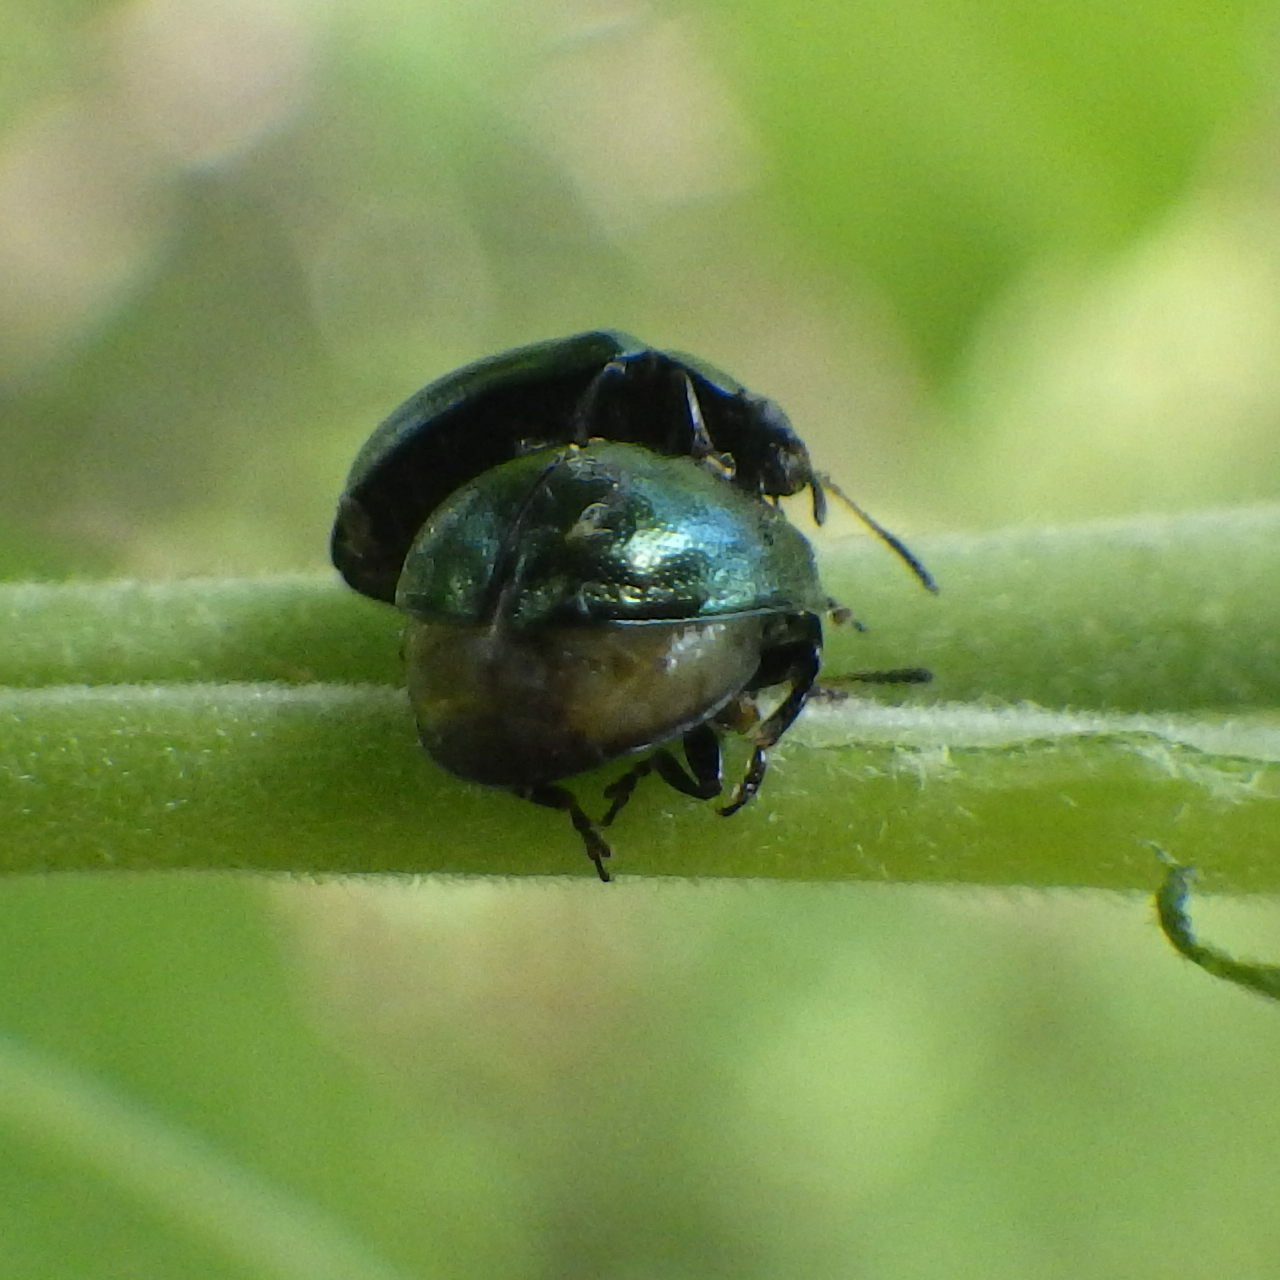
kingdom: Animalia
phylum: Arthropoda
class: Insecta
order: Coleoptera
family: Chrysomelidae
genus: Plagiodera
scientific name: Plagiodera versicolora
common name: Imported willow leaf beetle
